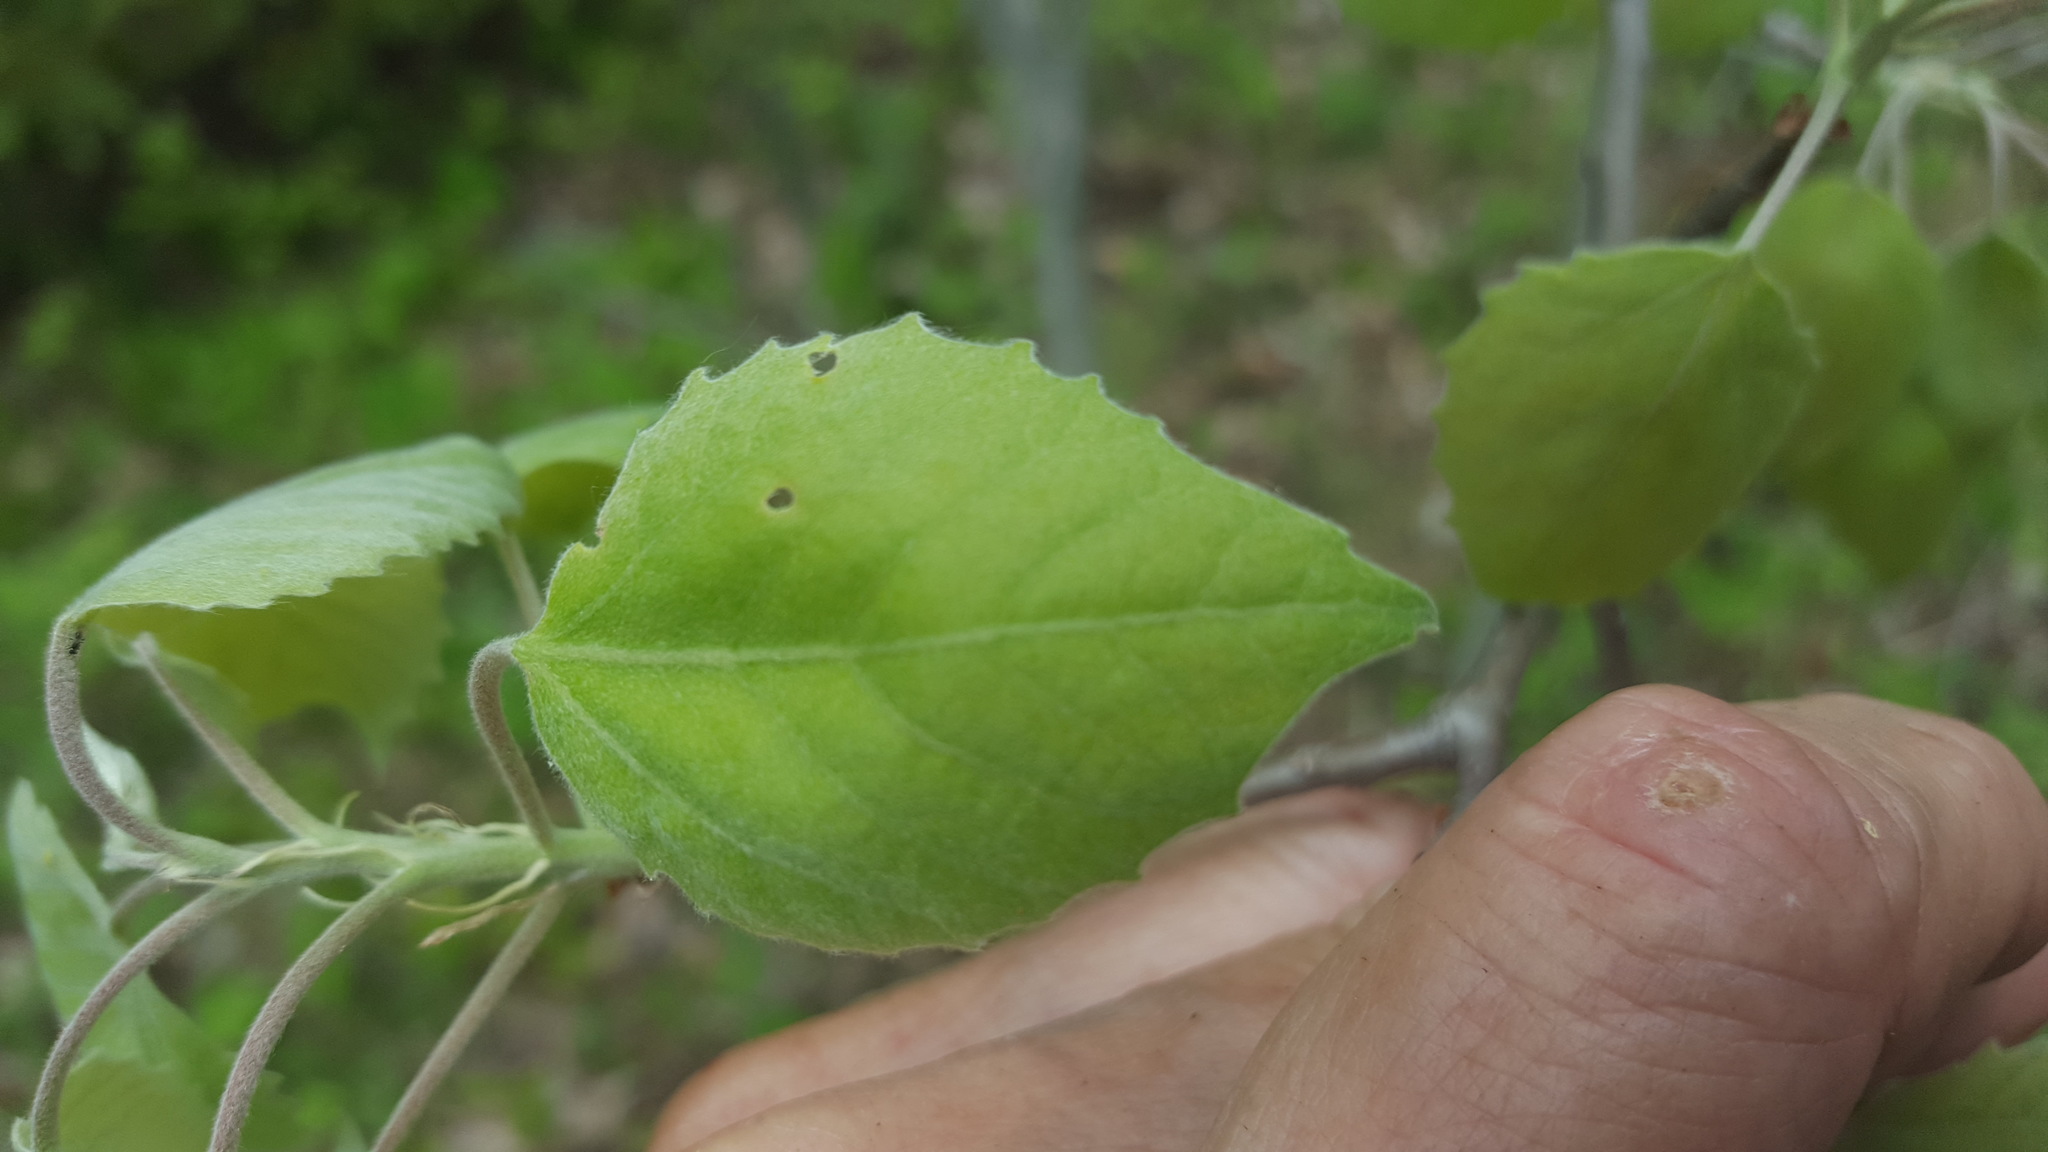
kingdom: Plantae
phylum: Tracheophyta
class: Magnoliopsida
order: Malpighiales
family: Salicaceae
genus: Populus
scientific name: Populus grandidentata
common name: Bigtooth aspen
